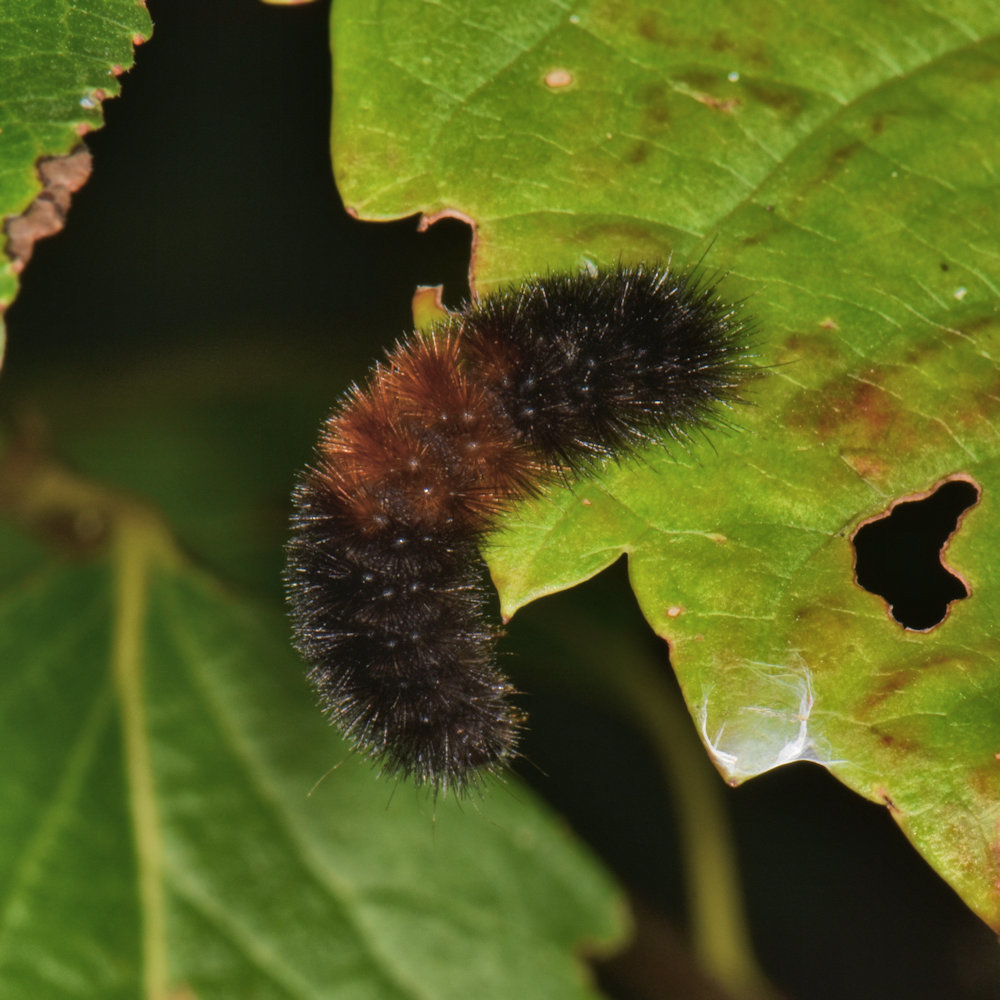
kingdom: Animalia
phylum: Arthropoda
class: Insecta
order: Lepidoptera
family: Erebidae
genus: Pyrrharctia
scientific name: Pyrrharctia isabella
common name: Isabella tiger moth
